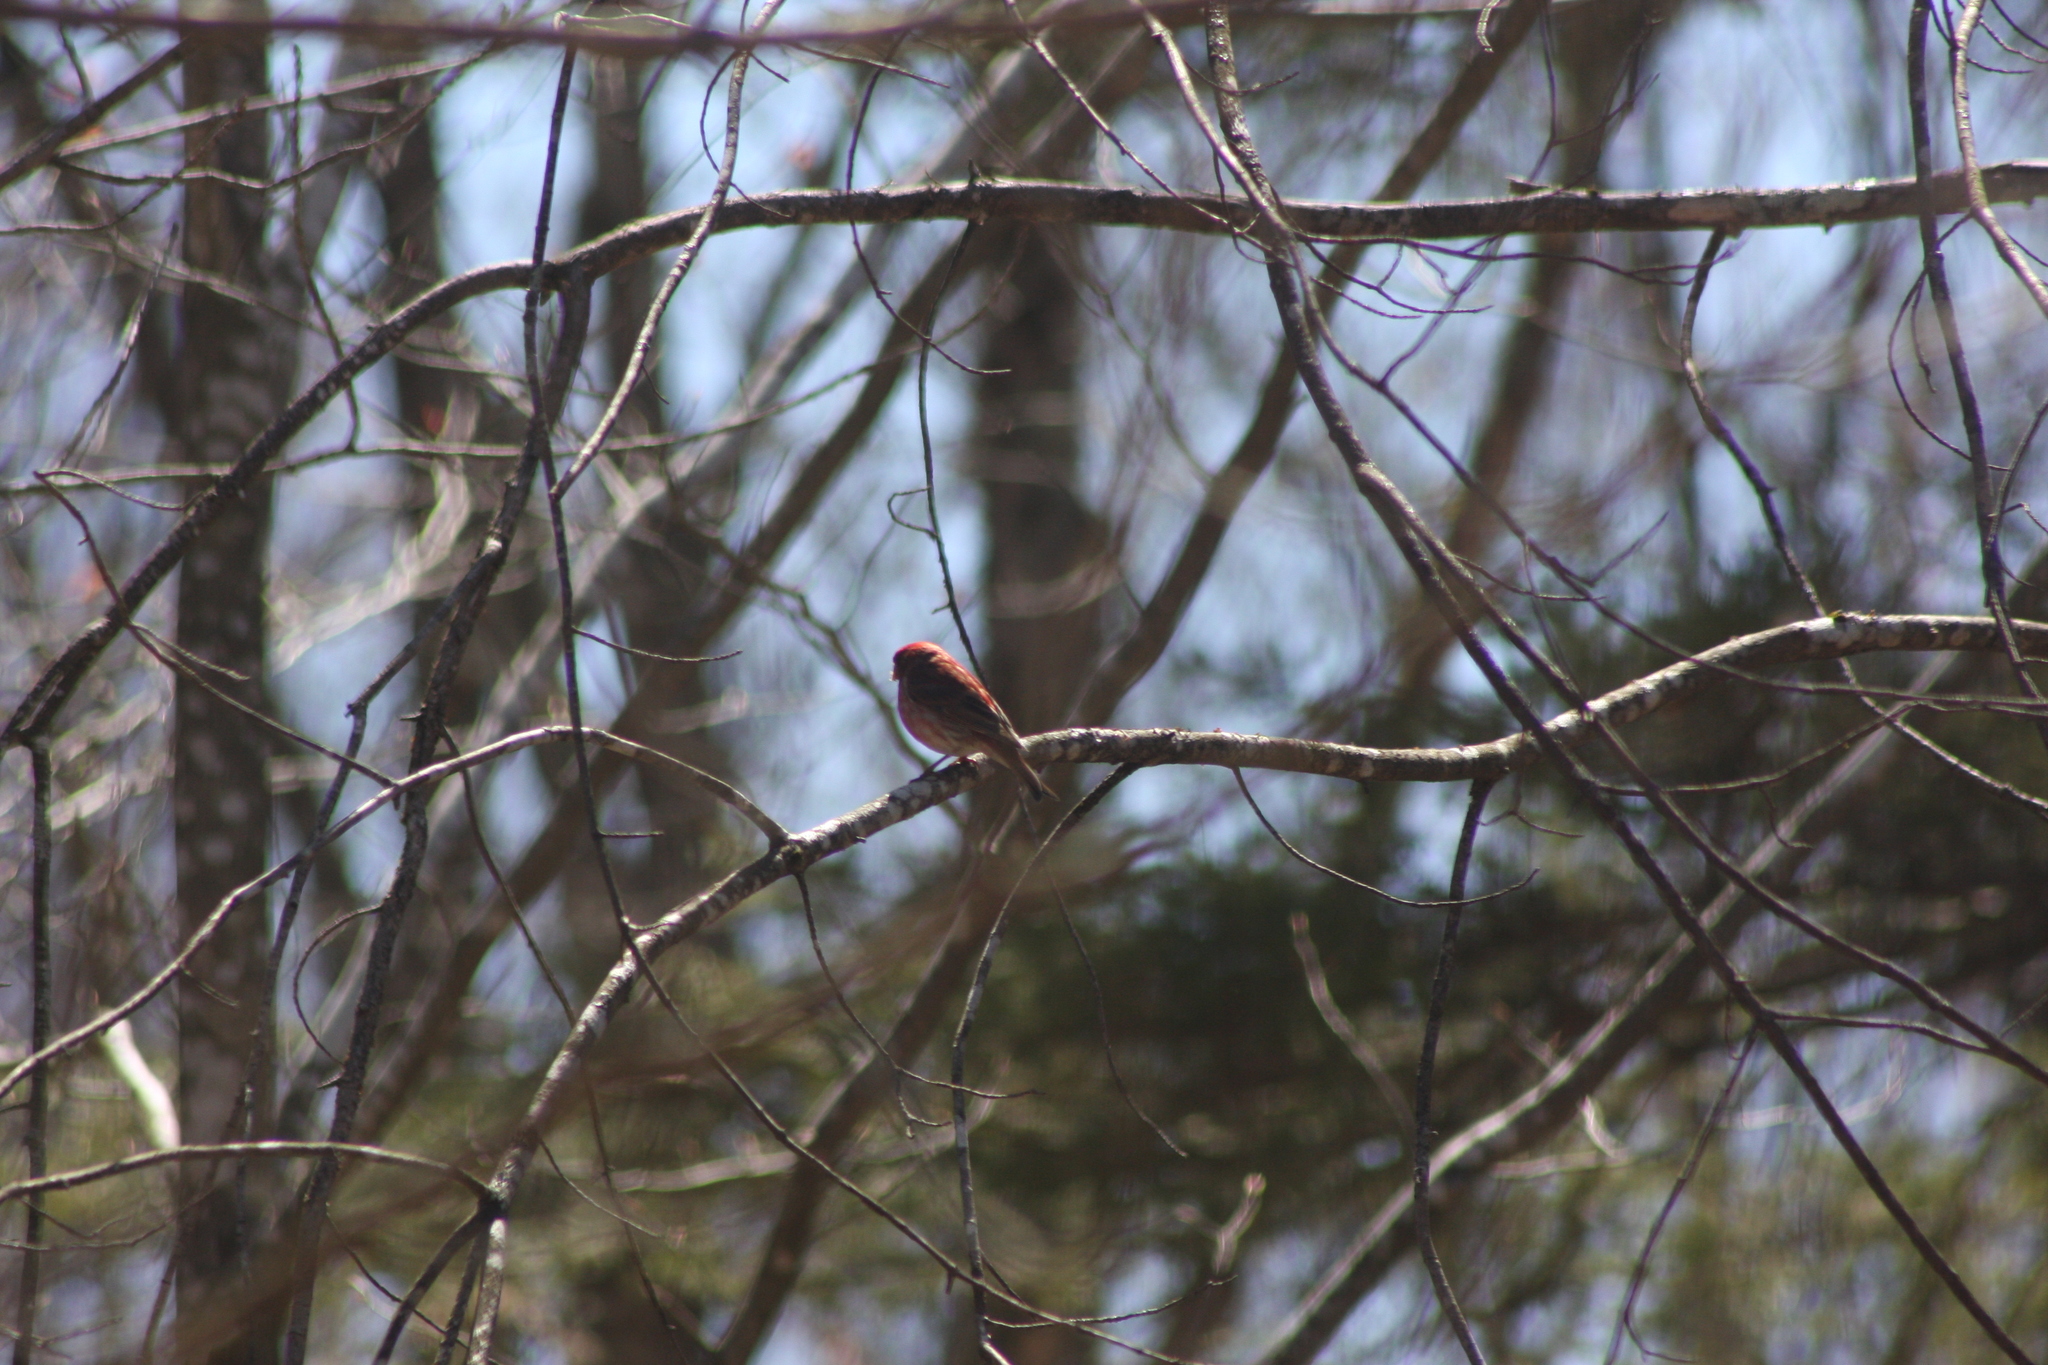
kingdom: Animalia
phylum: Chordata
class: Aves
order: Passeriformes
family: Fringillidae
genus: Haemorhous
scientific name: Haemorhous purpureus
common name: Purple finch
